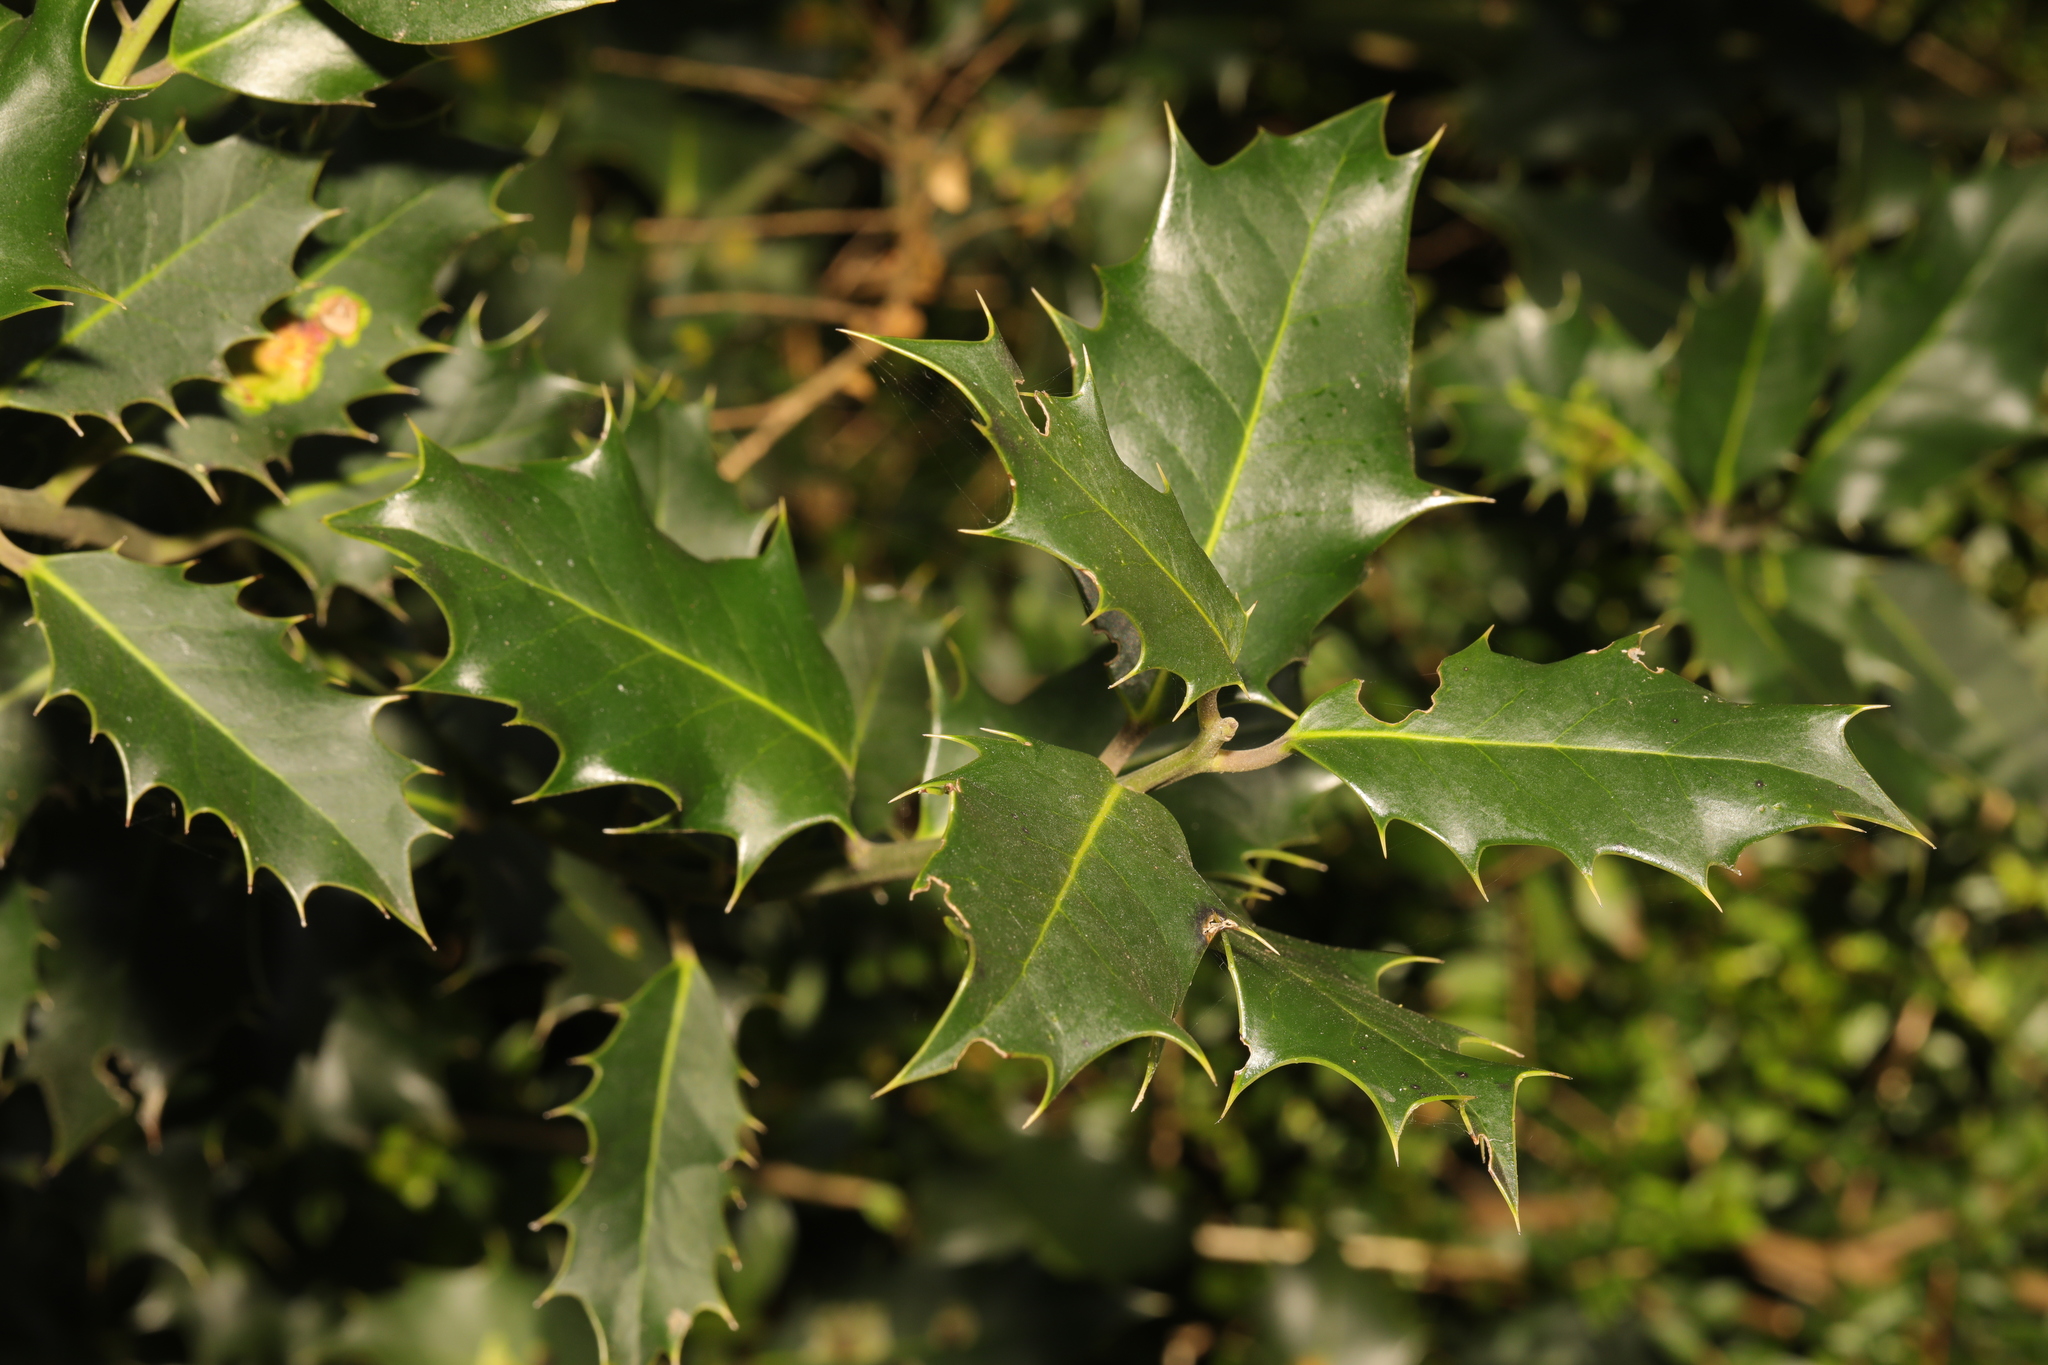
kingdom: Plantae
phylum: Tracheophyta
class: Magnoliopsida
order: Aquifoliales
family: Aquifoliaceae
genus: Ilex
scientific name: Ilex aquifolium
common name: English holly
